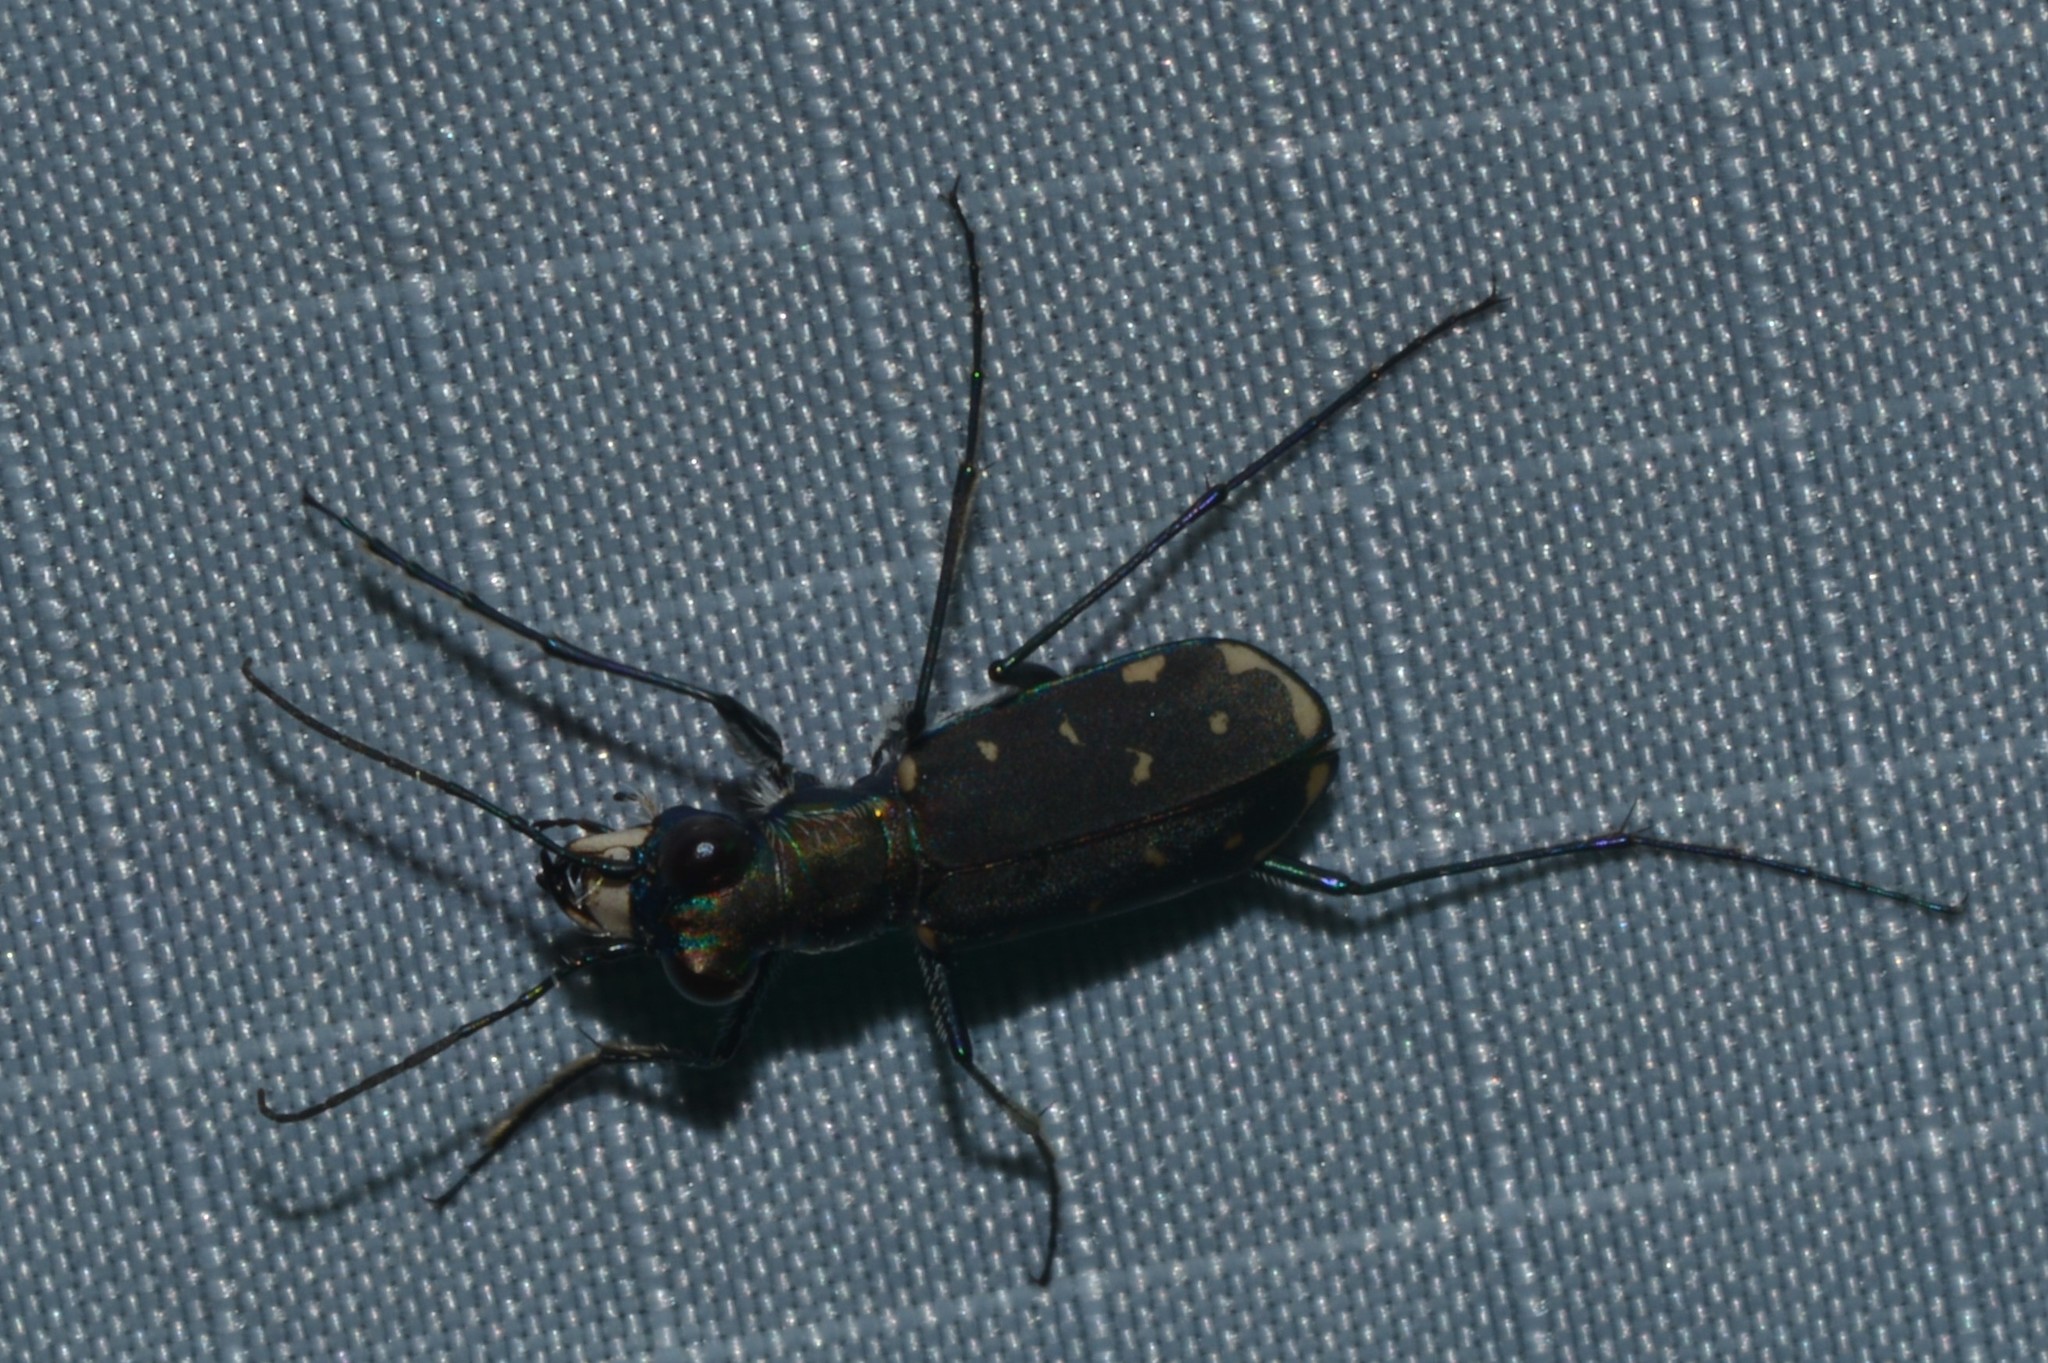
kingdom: Animalia
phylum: Arthropoda
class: Insecta
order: Coleoptera
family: Carabidae
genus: Cicindela
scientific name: Cicindela rufiventris
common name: Eastern red-bellied tiger beetle
